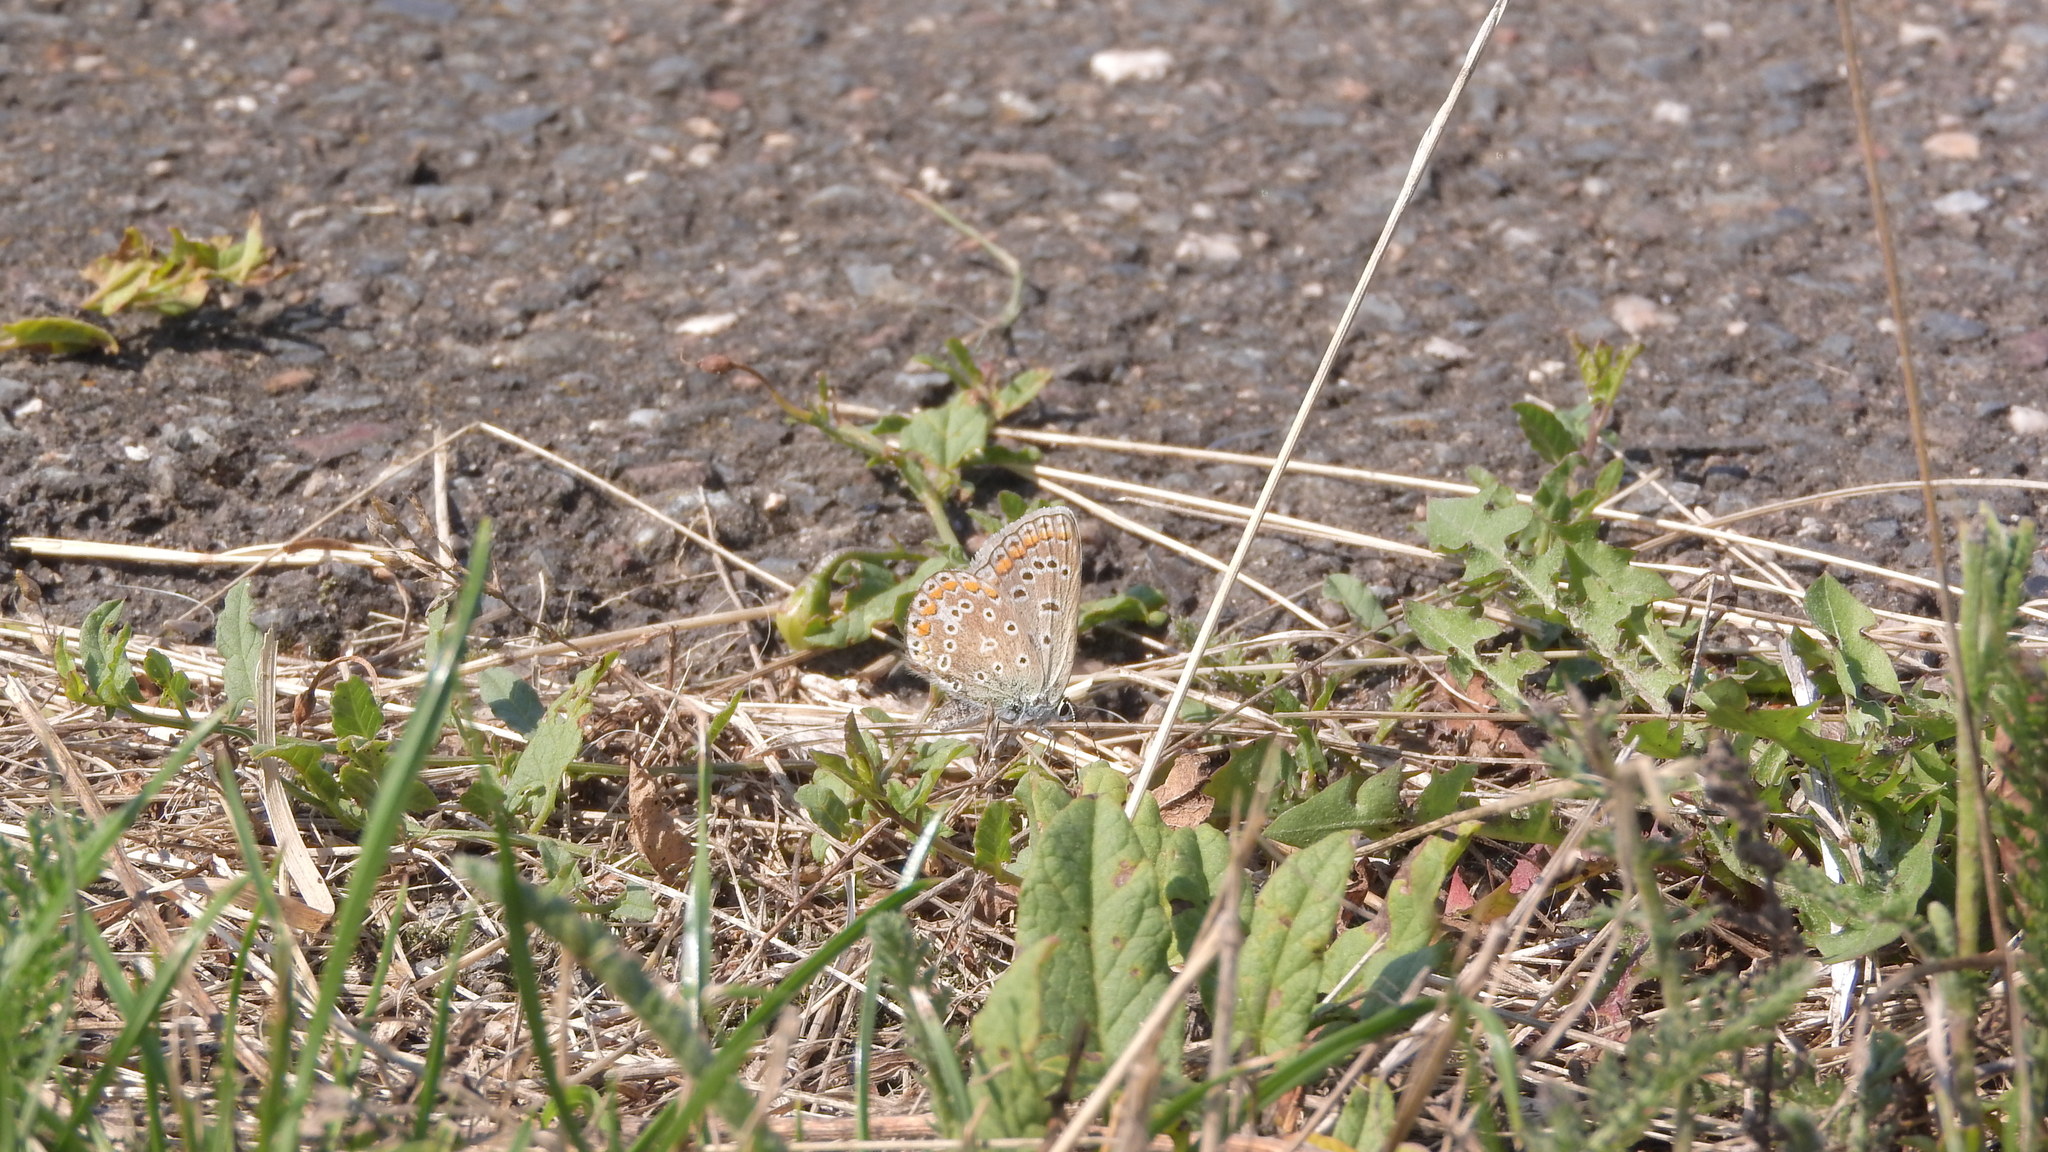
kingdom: Animalia
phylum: Arthropoda
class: Insecta
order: Lepidoptera
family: Lycaenidae
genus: Polyommatus
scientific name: Polyommatus icarus
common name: Common blue
